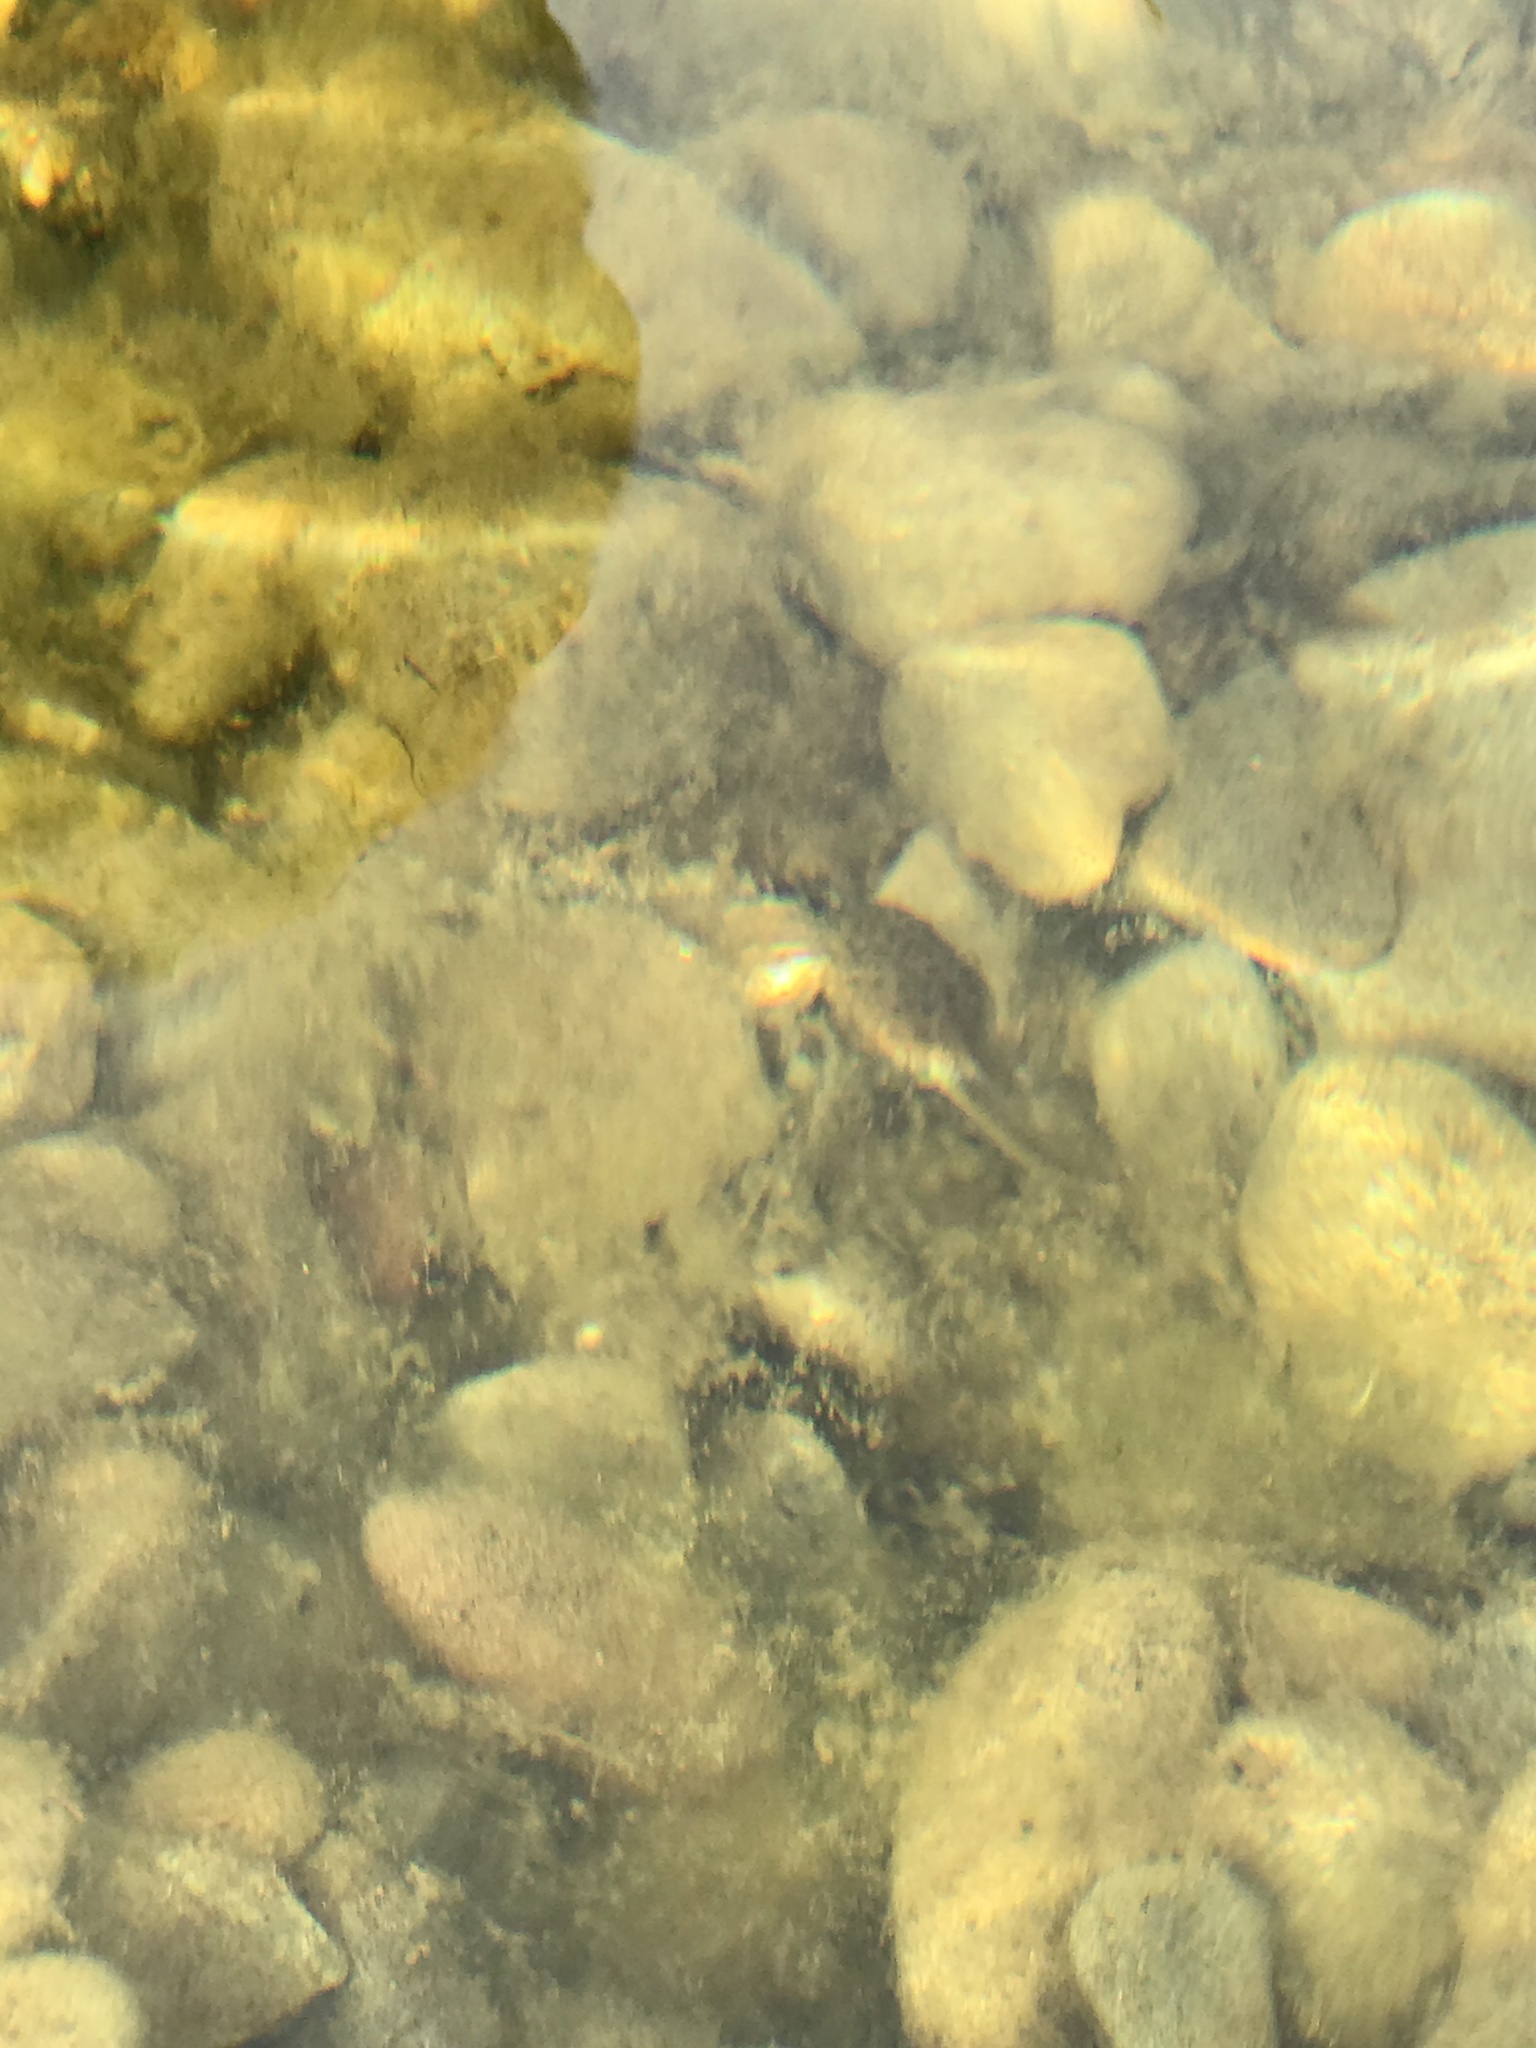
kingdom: Animalia
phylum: Chordata
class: Amphibia
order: Anura
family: Ranidae
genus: Lithobates
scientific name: Lithobates catesbeianus
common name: American bullfrog
